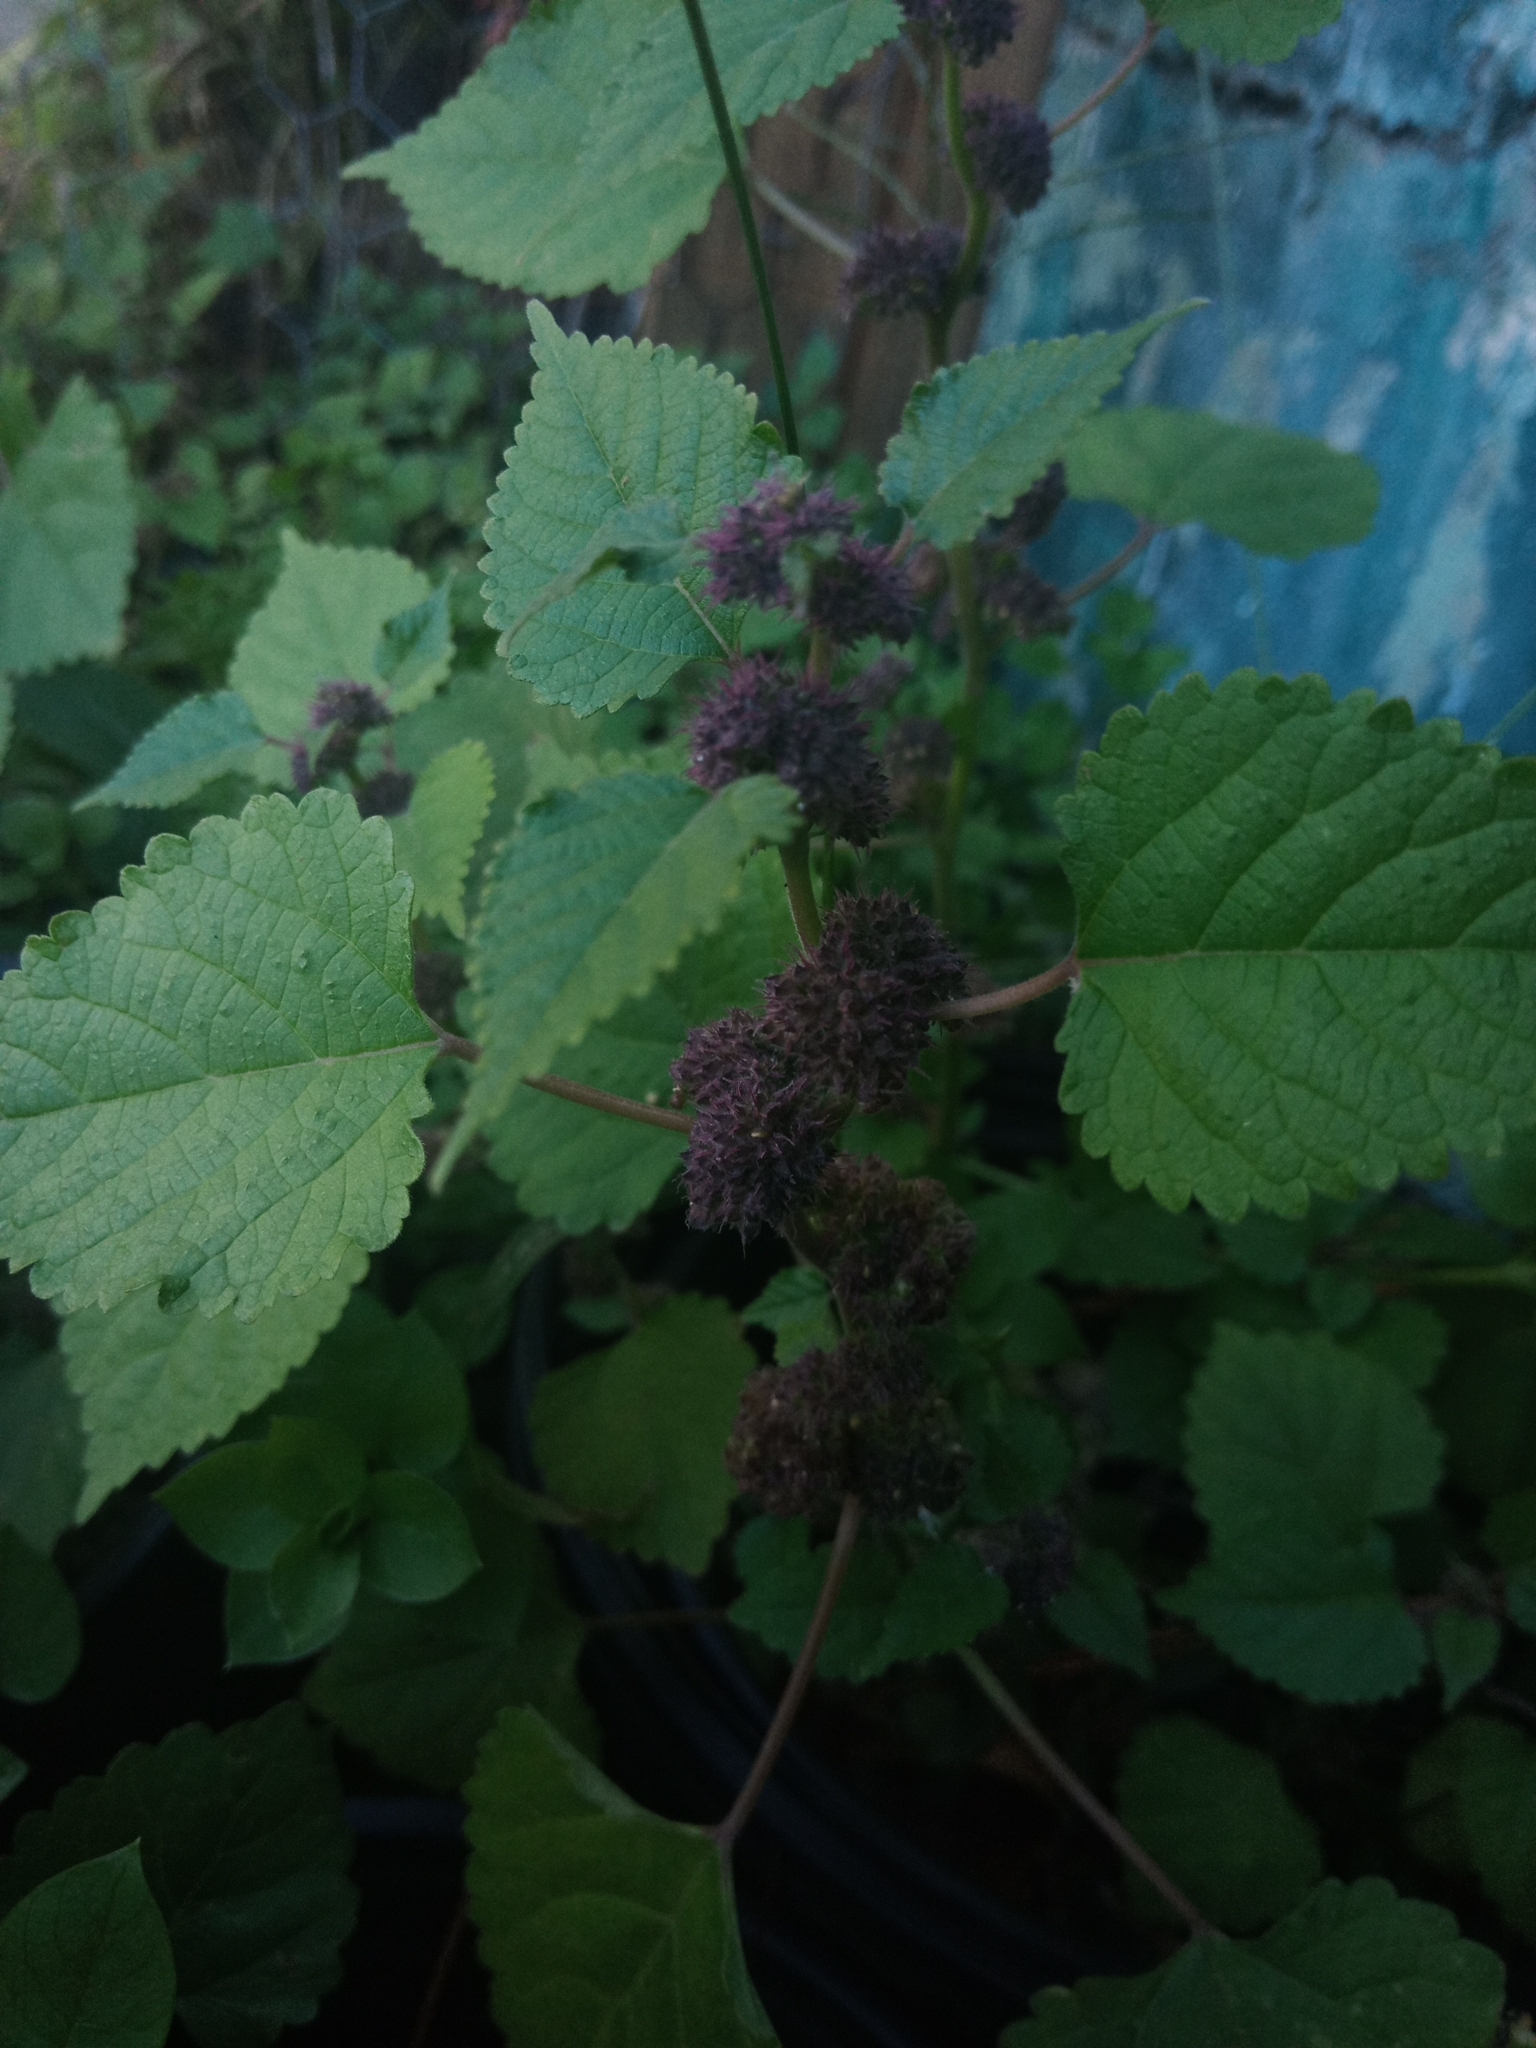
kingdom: Plantae
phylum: Tracheophyta
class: Magnoliopsida
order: Rosales
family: Moraceae
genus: Fatoua
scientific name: Fatoua villosa
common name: Hairy crabweed
